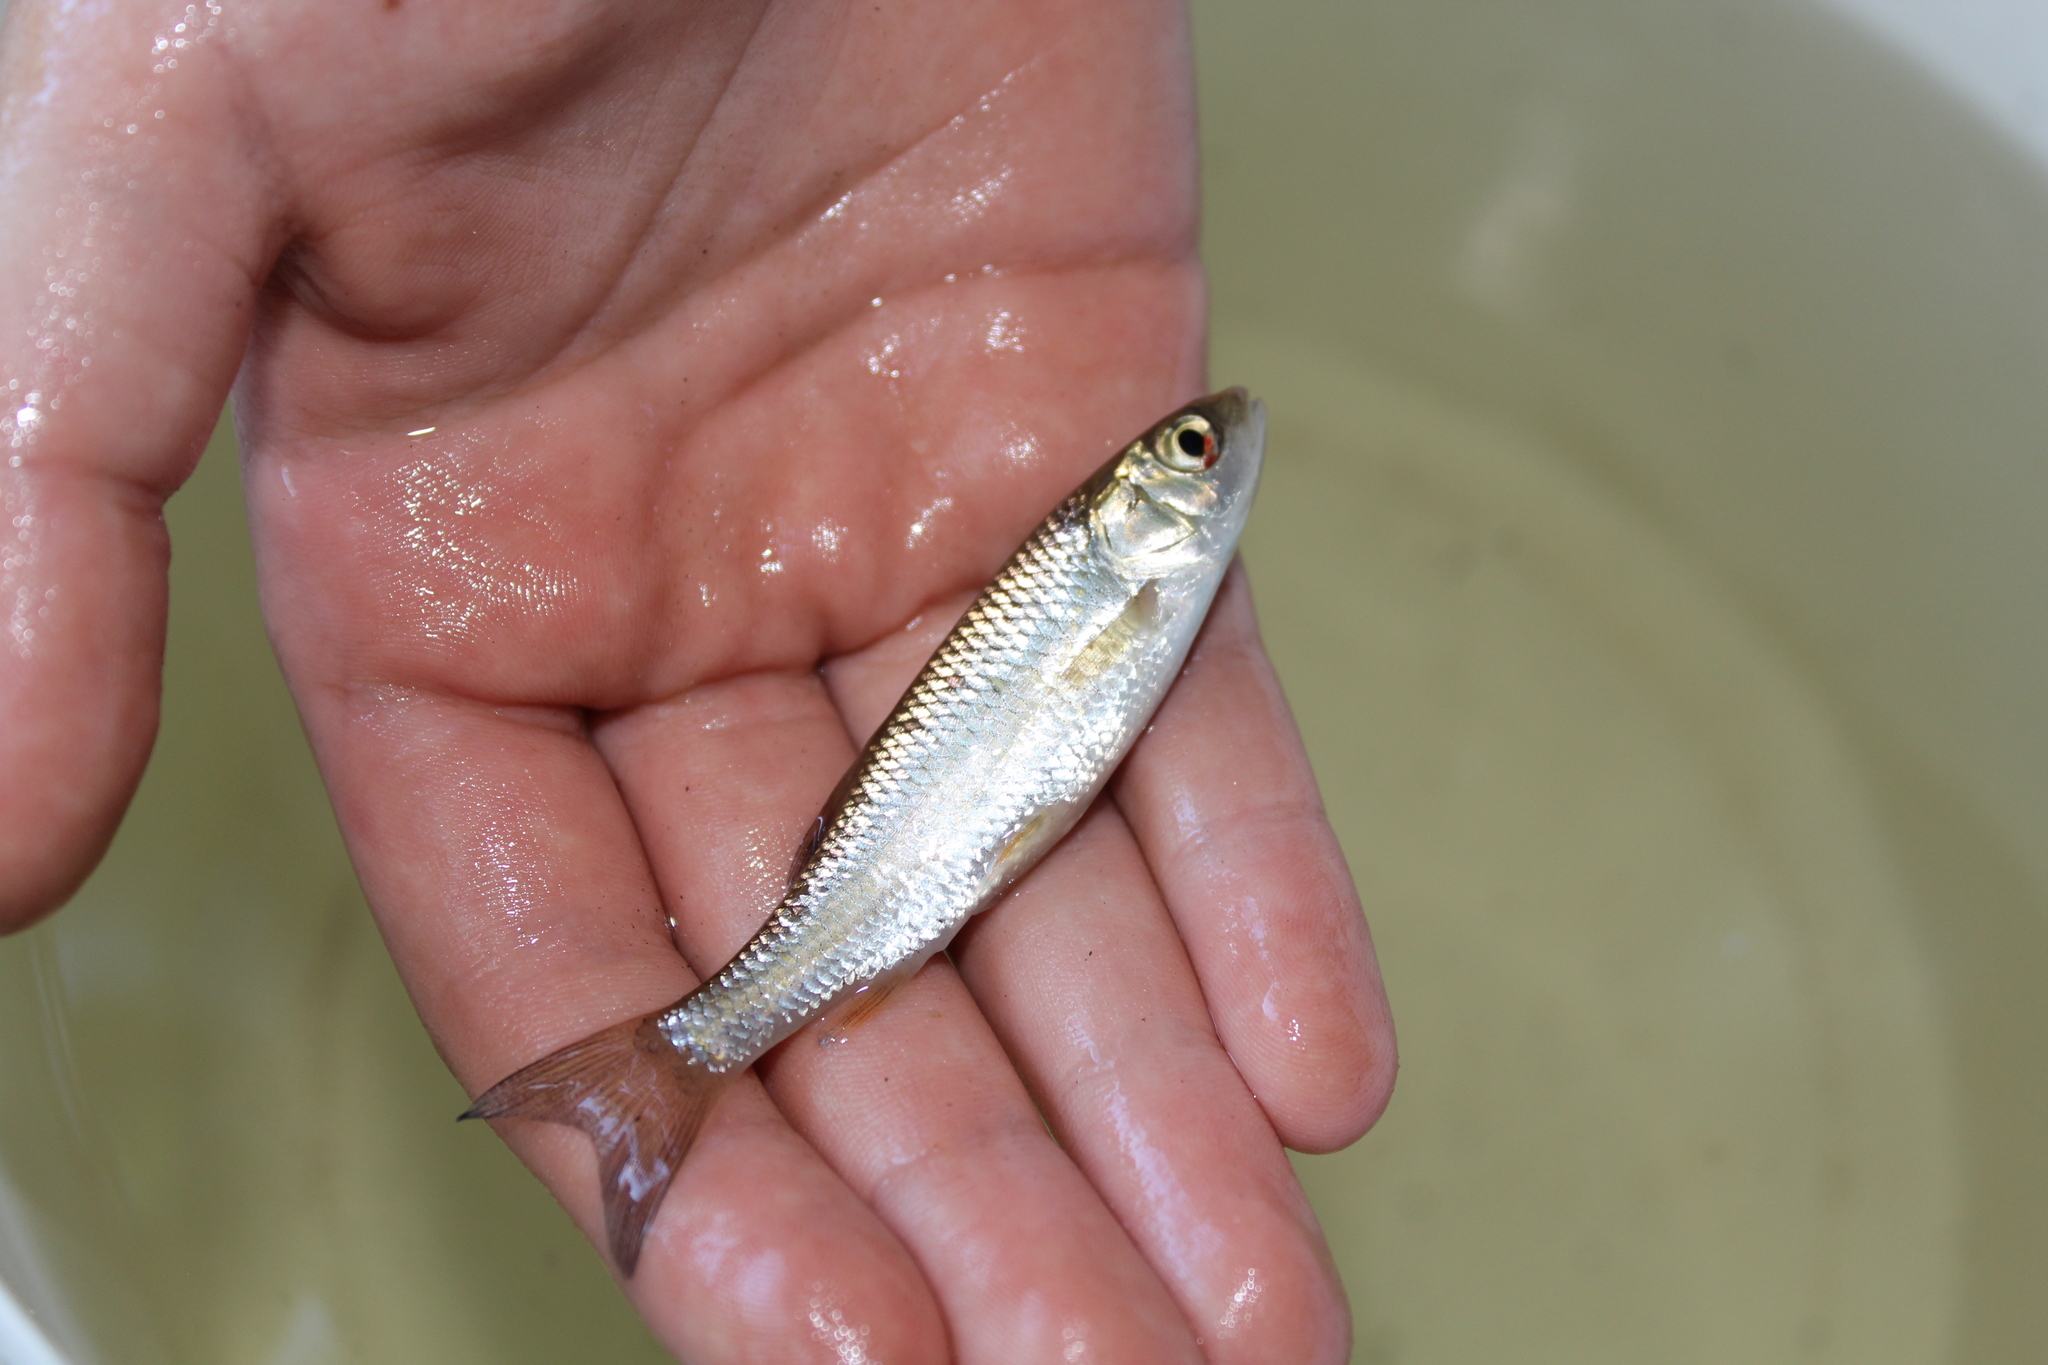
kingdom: Animalia
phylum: Chordata
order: Cypriniformes
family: Cyprinidae
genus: Squalius
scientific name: Squalius cephalus
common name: Chub
